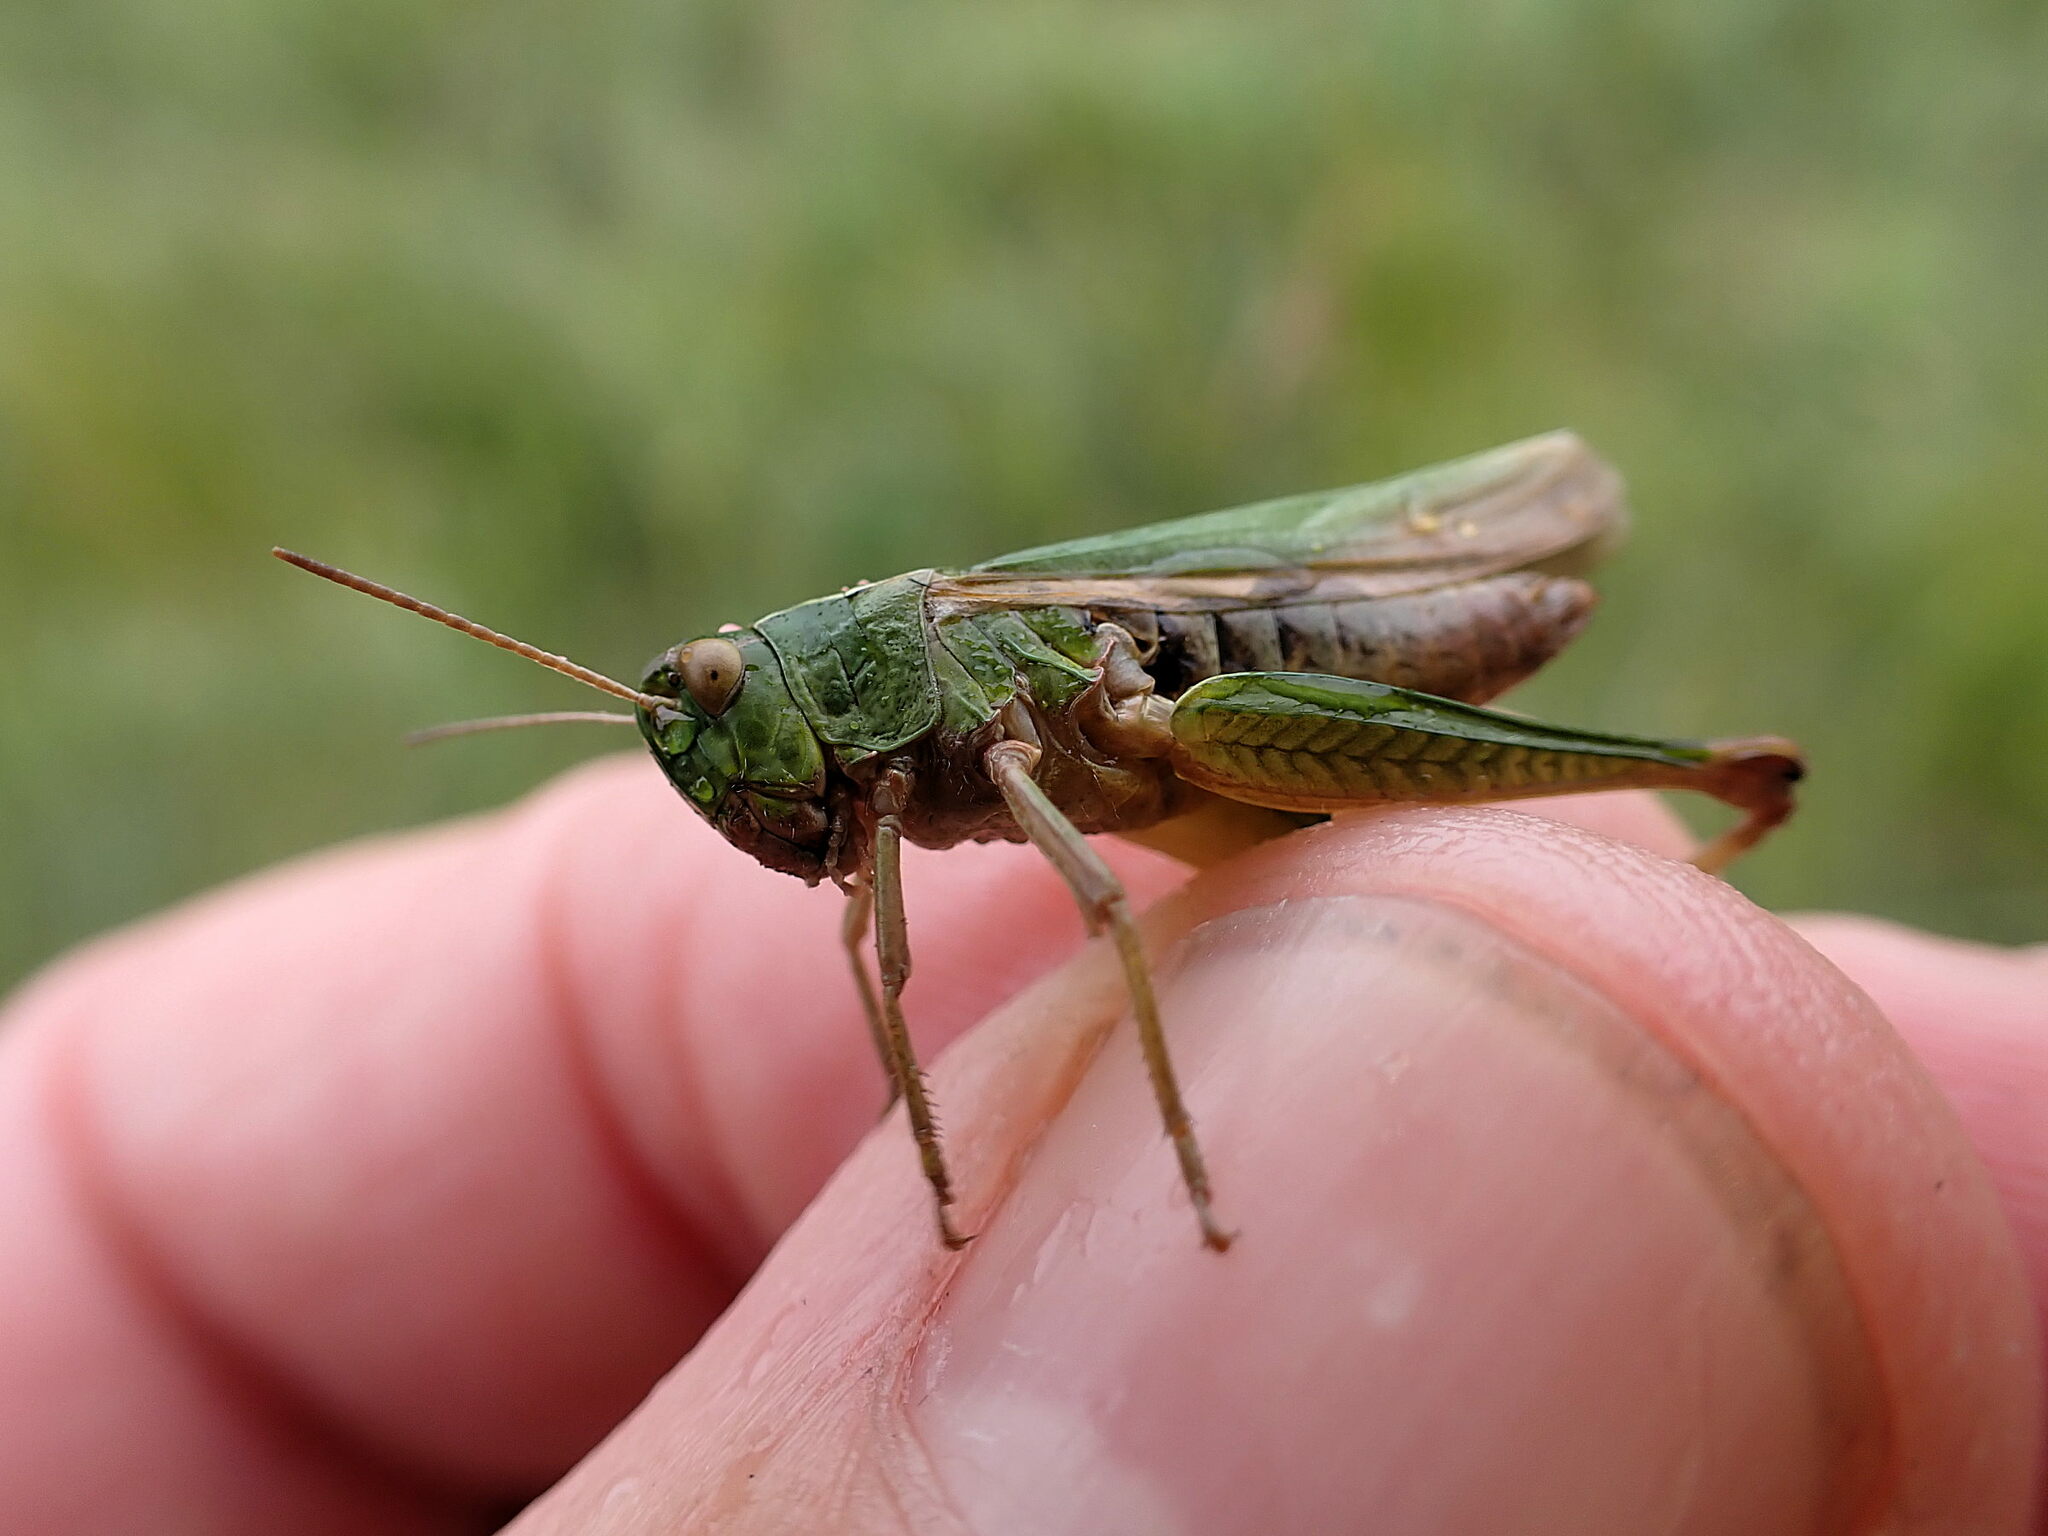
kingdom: Animalia
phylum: Arthropoda
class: Insecta
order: Orthoptera
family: Acrididae
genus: Omocestus
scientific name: Omocestus viridulus
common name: Common green grasshopper
